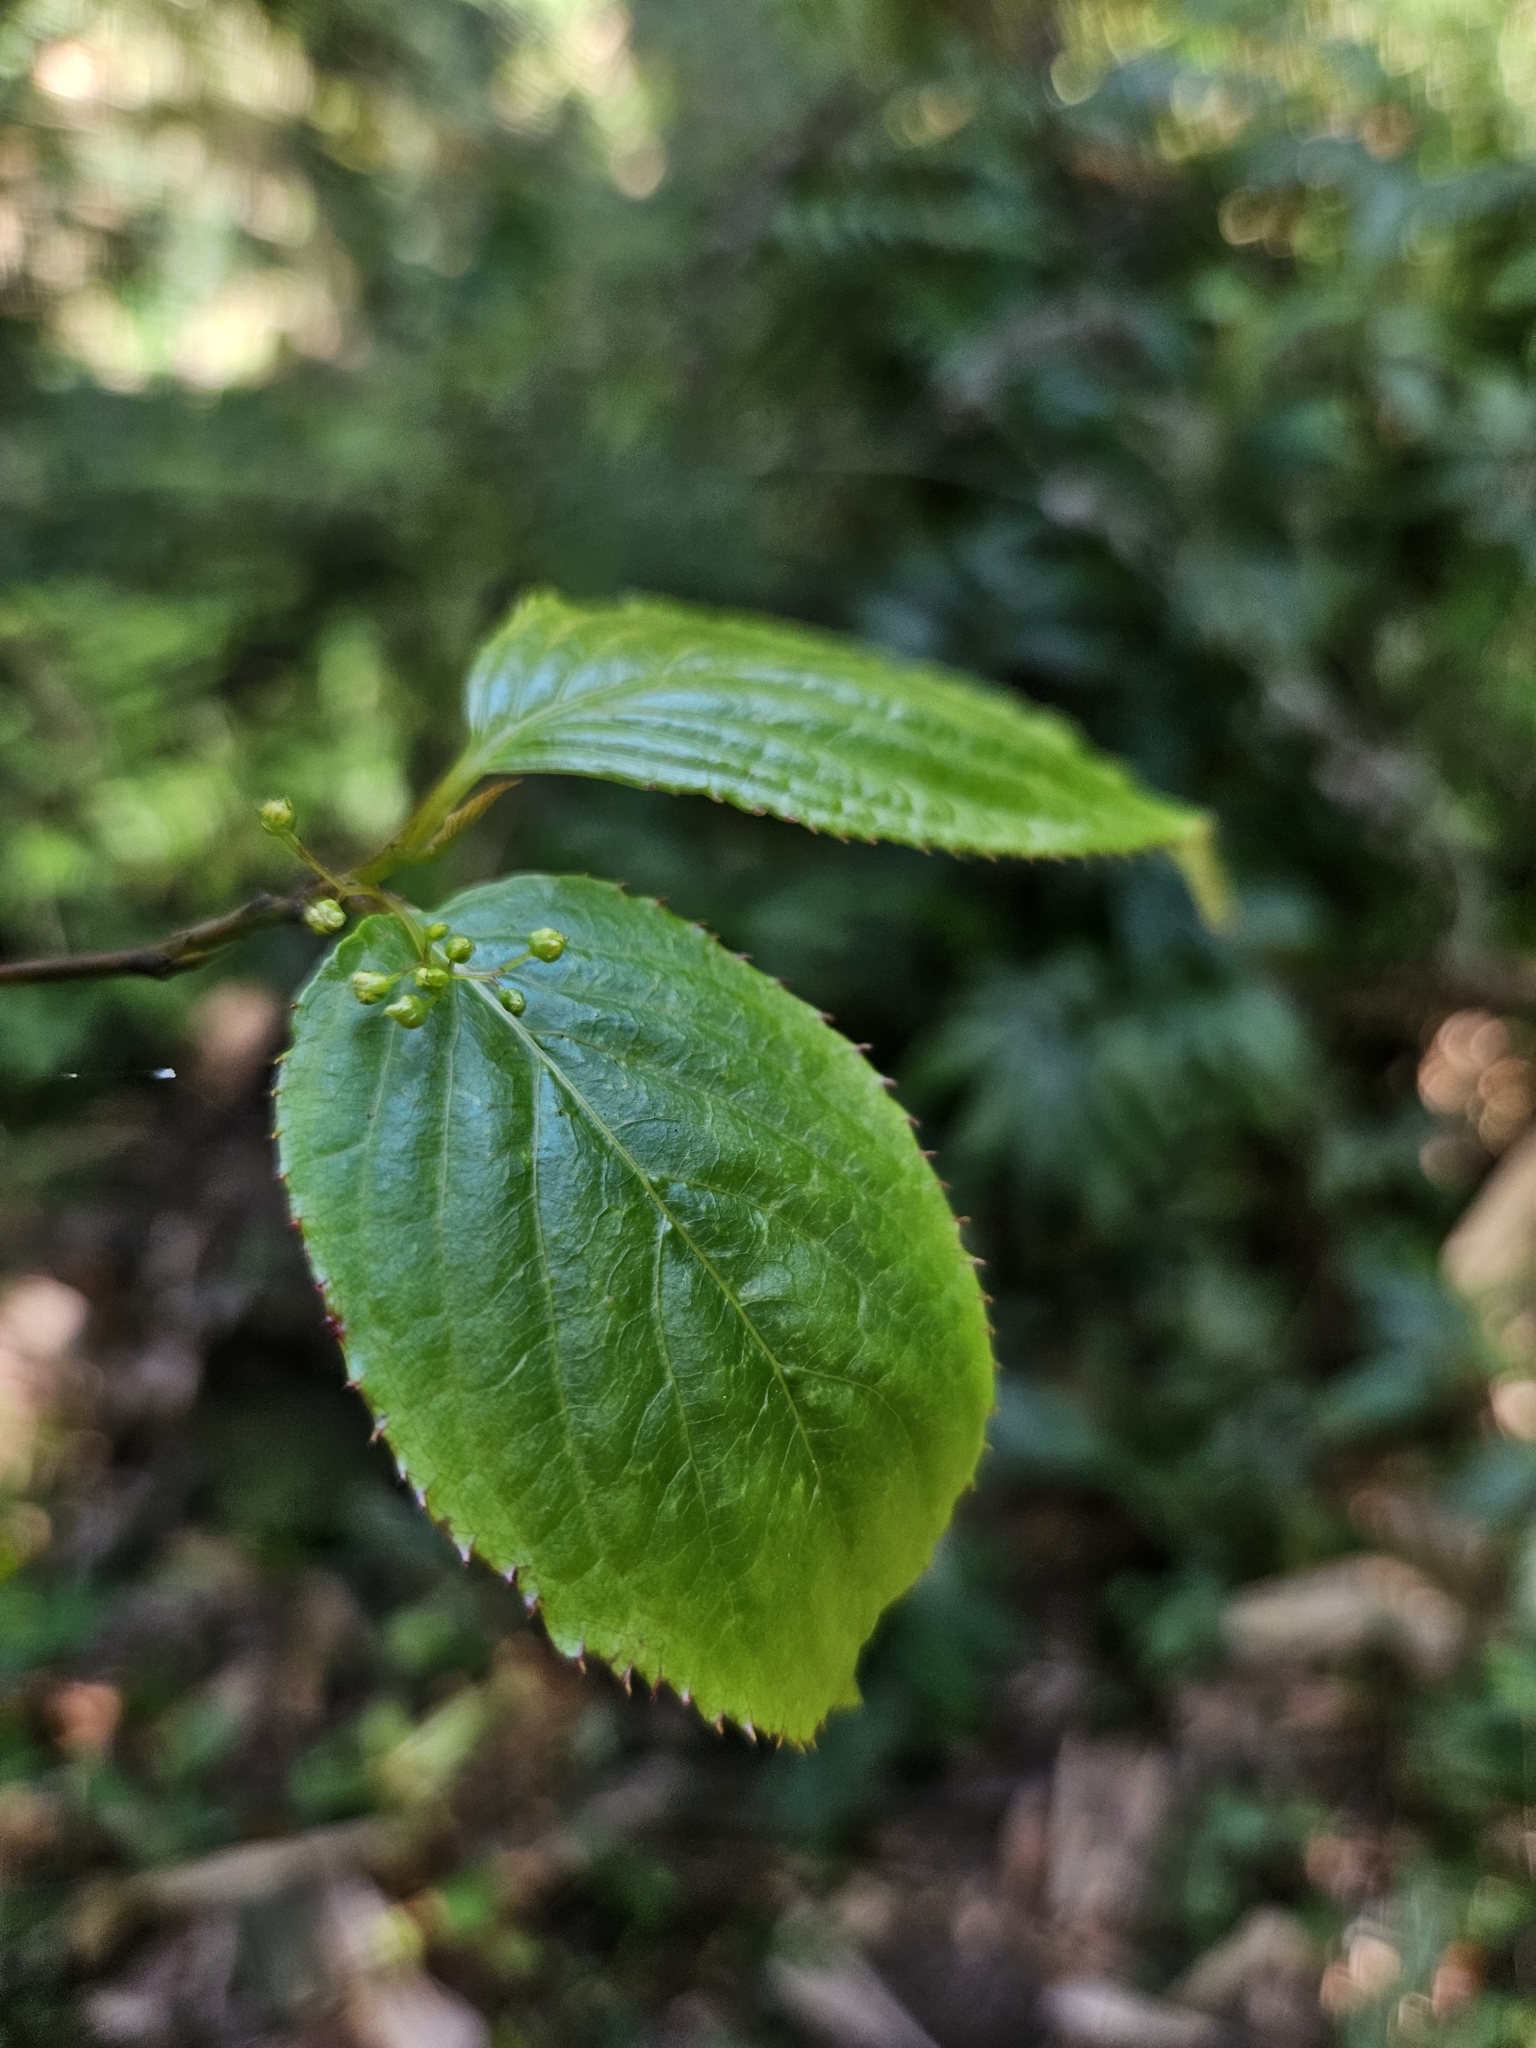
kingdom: Plantae
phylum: Tracheophyta
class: Magnoliopsida
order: Huerteales
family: Dipentodontaceae
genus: Perrottetia
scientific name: Perrottetia arisanensis
